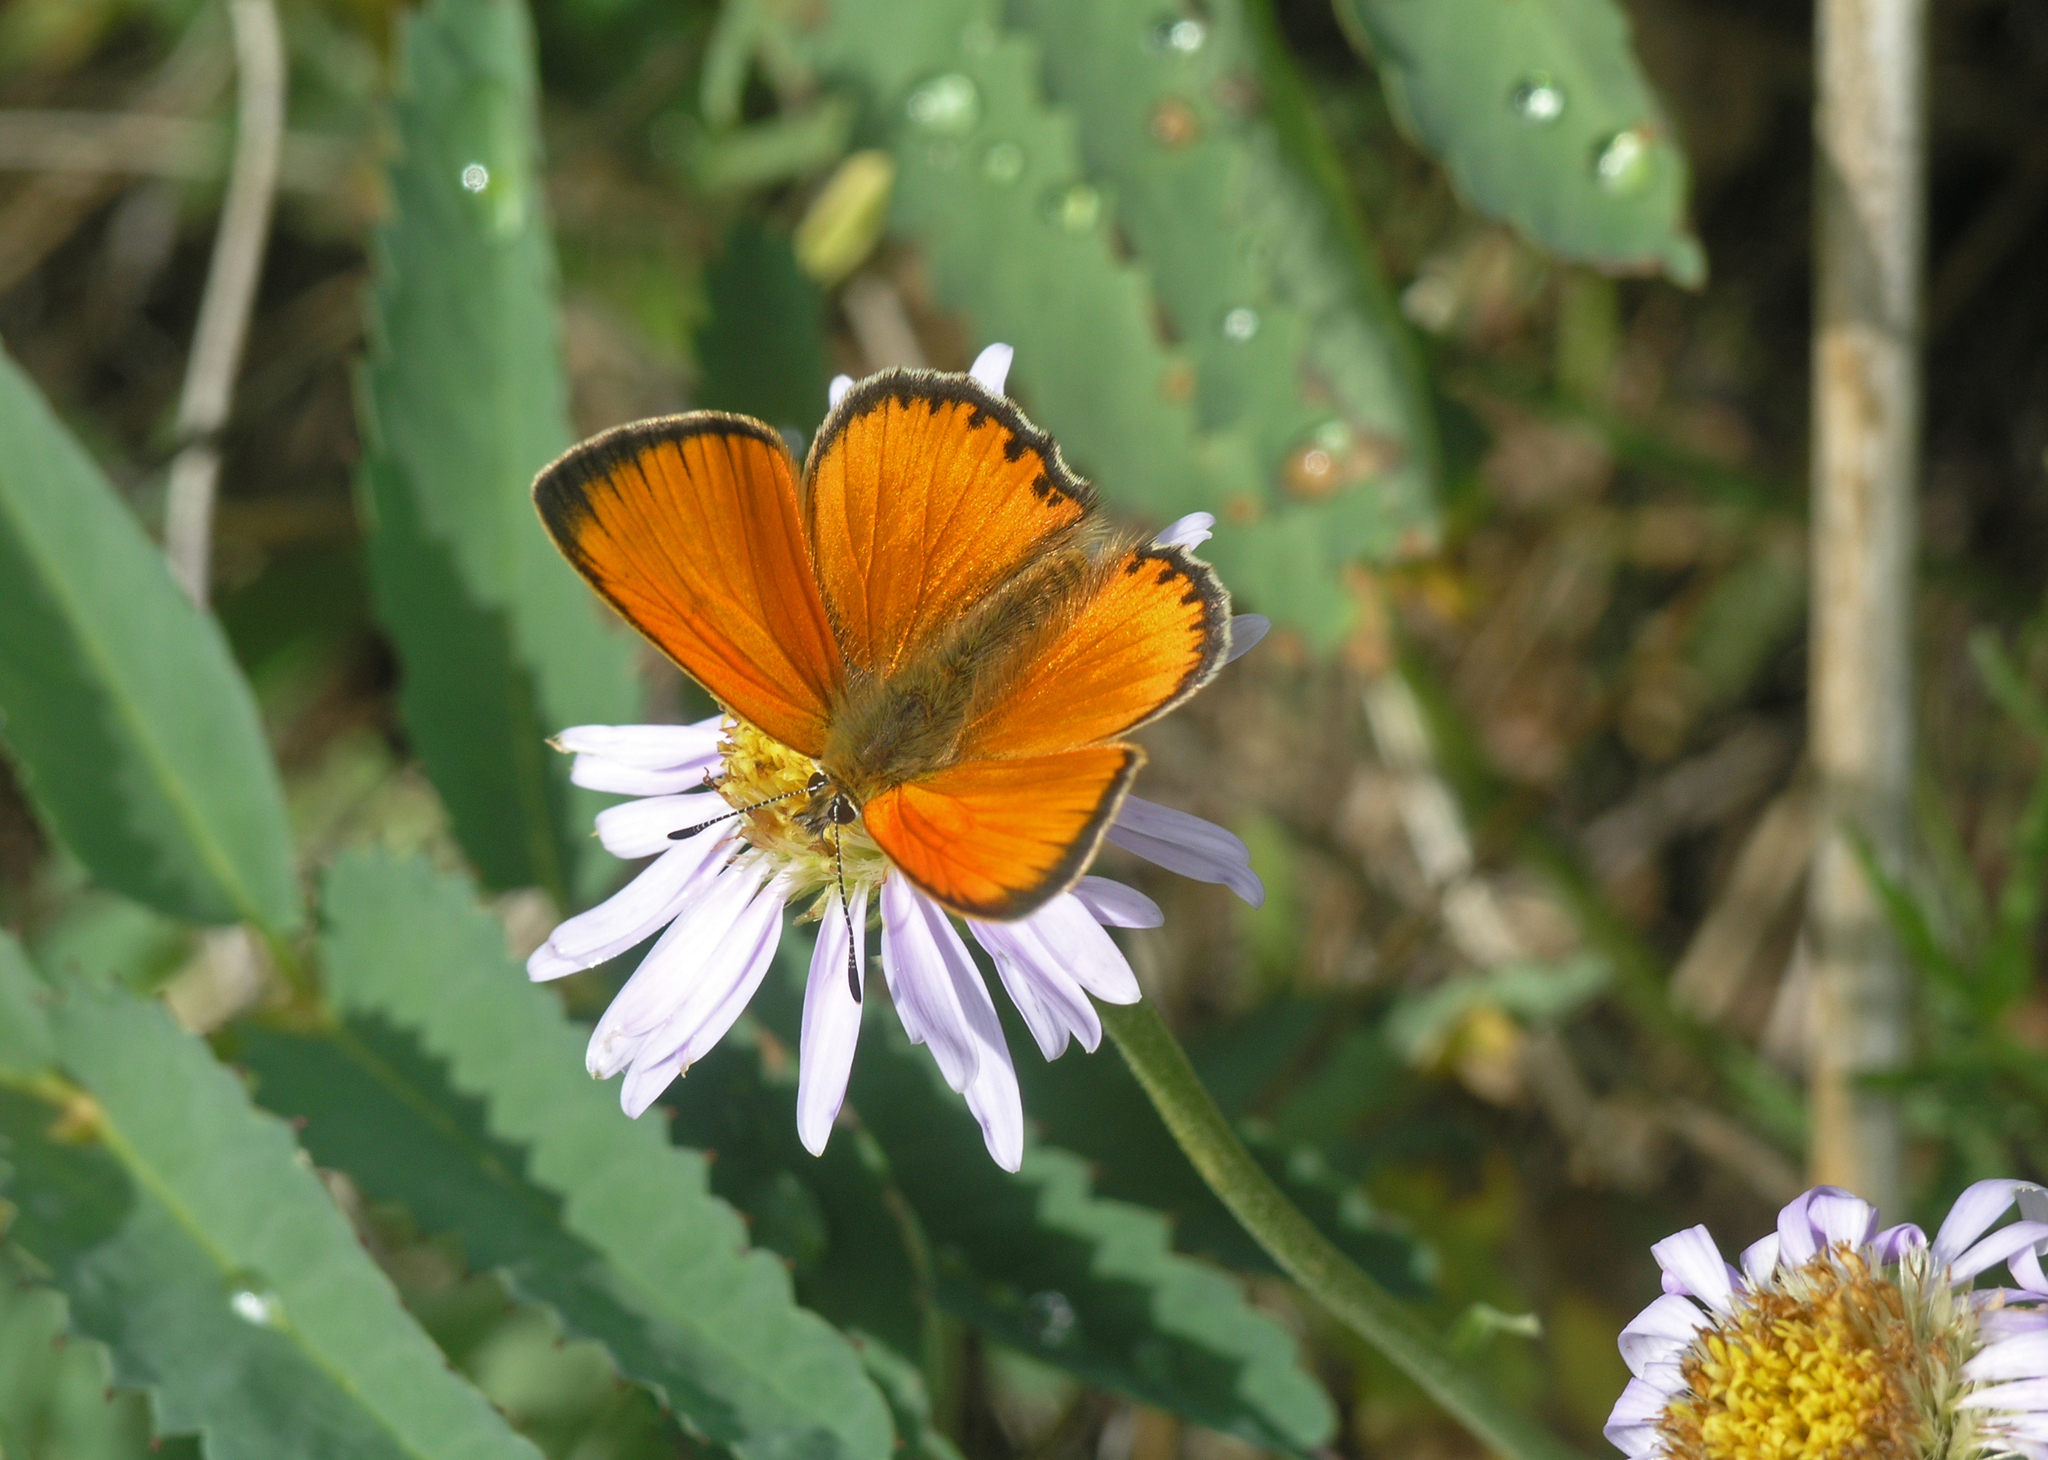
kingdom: Plantae
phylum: Tracheophyta
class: Magnoliopsida
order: Asterales
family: Asteraceae
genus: Aster
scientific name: Aster alpinus
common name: Alpine aster
